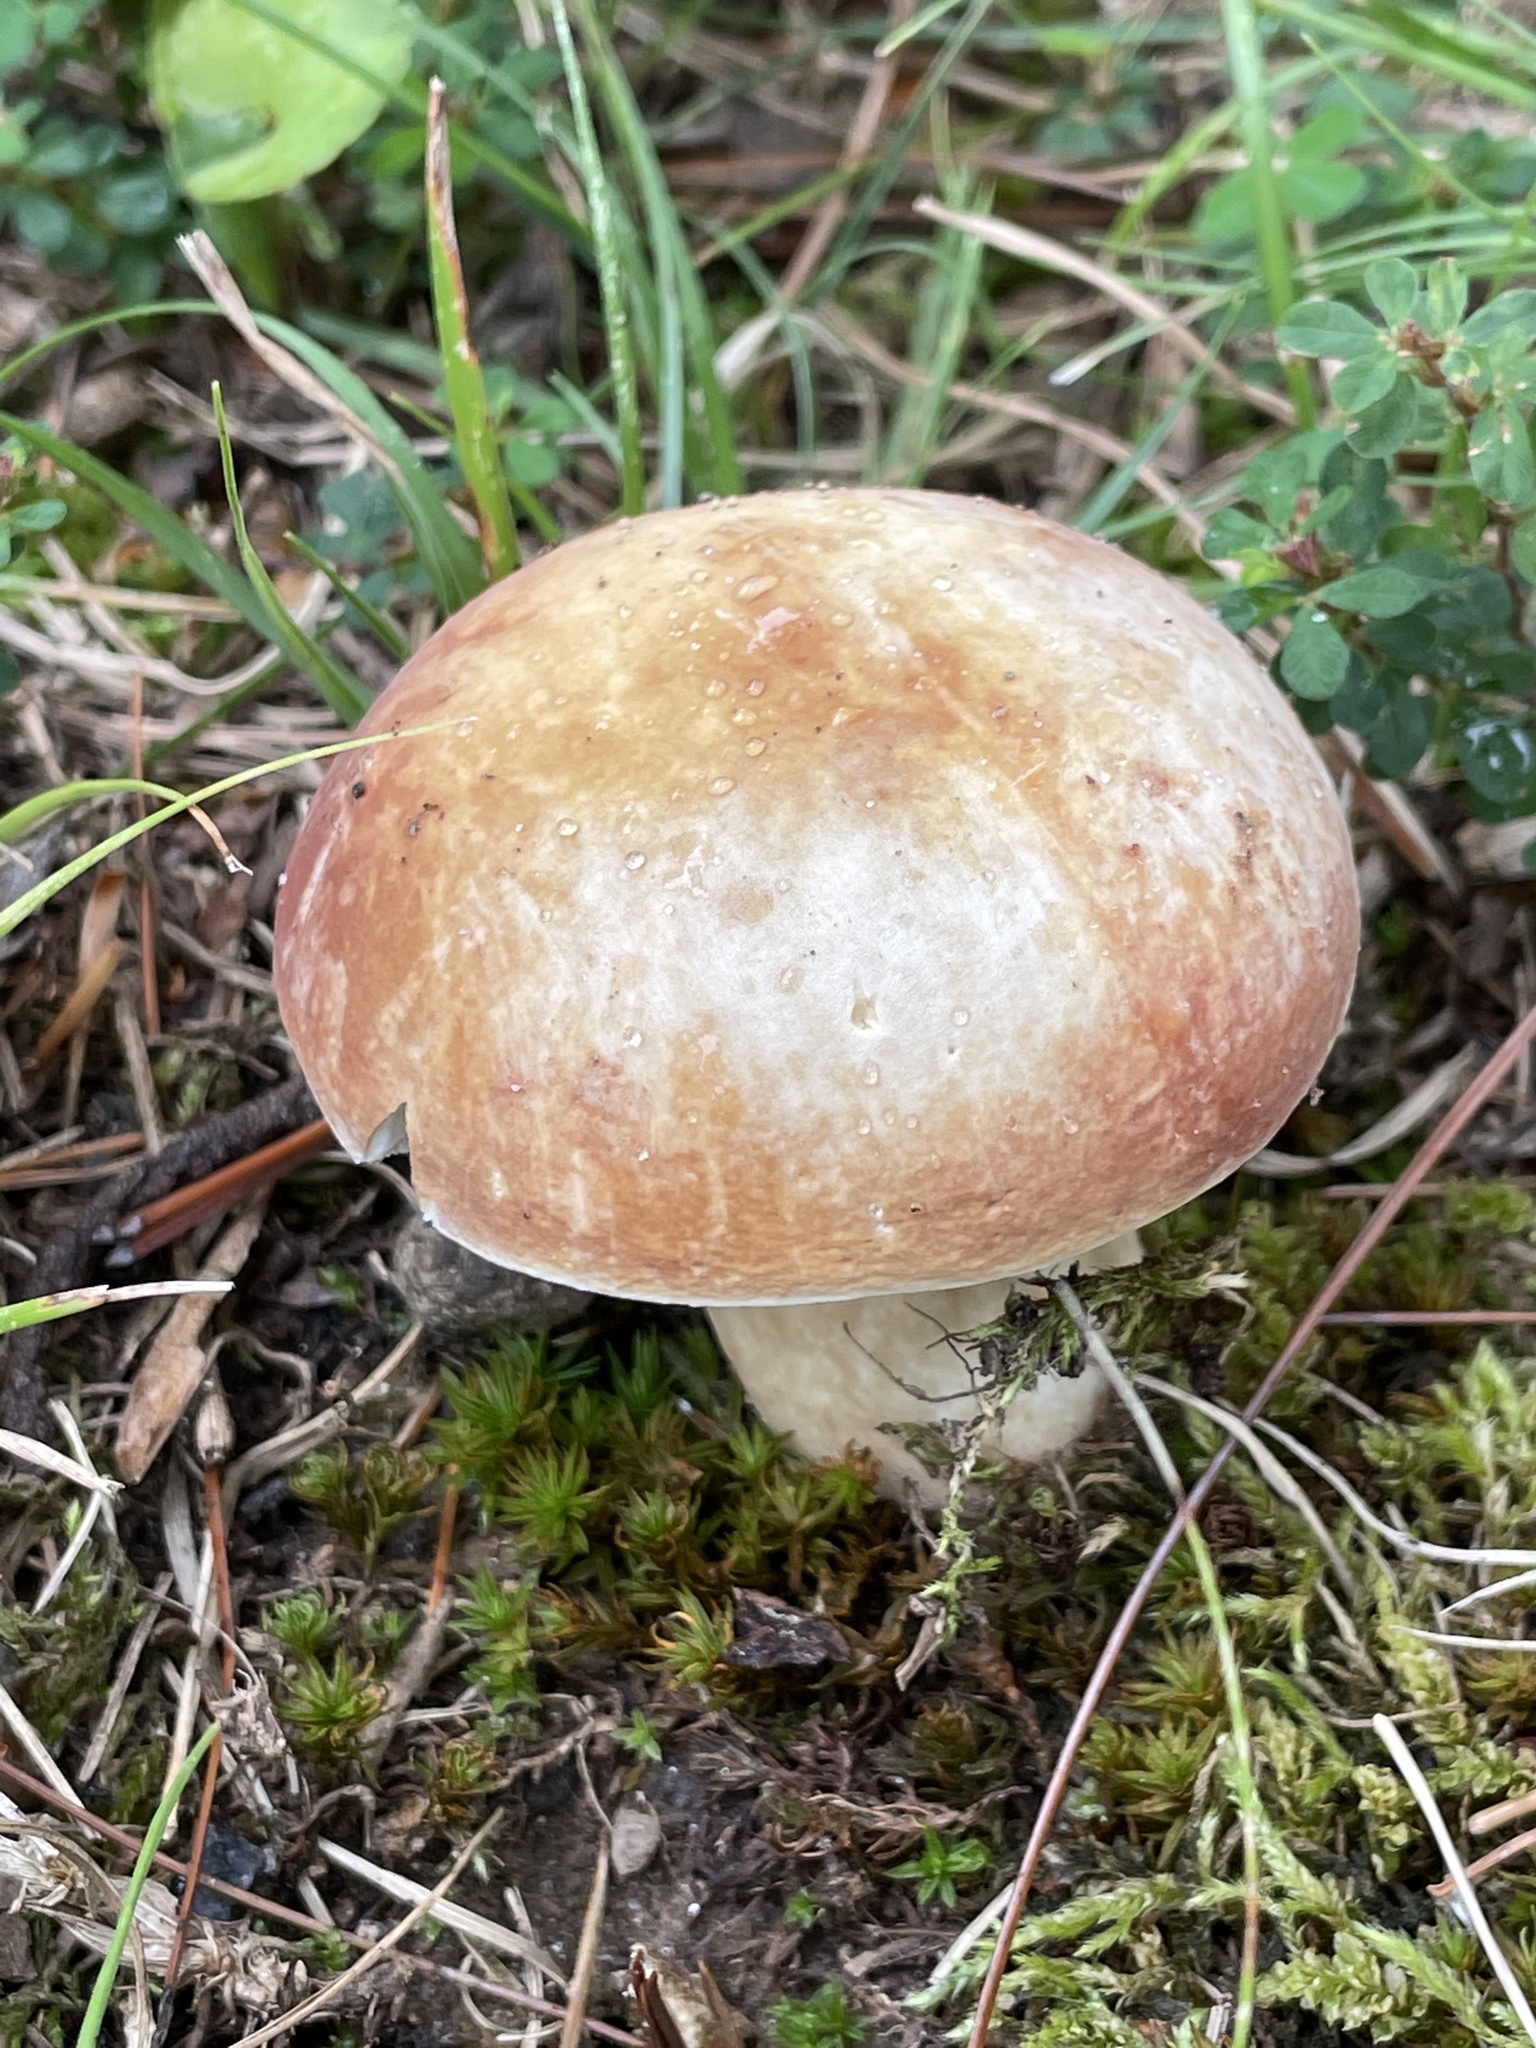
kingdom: Fungi
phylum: Basidiomycota
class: Agaricomycetes
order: Boletales
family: Boletaceae
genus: Xanthoconium
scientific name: Xanthoconium purpureum
